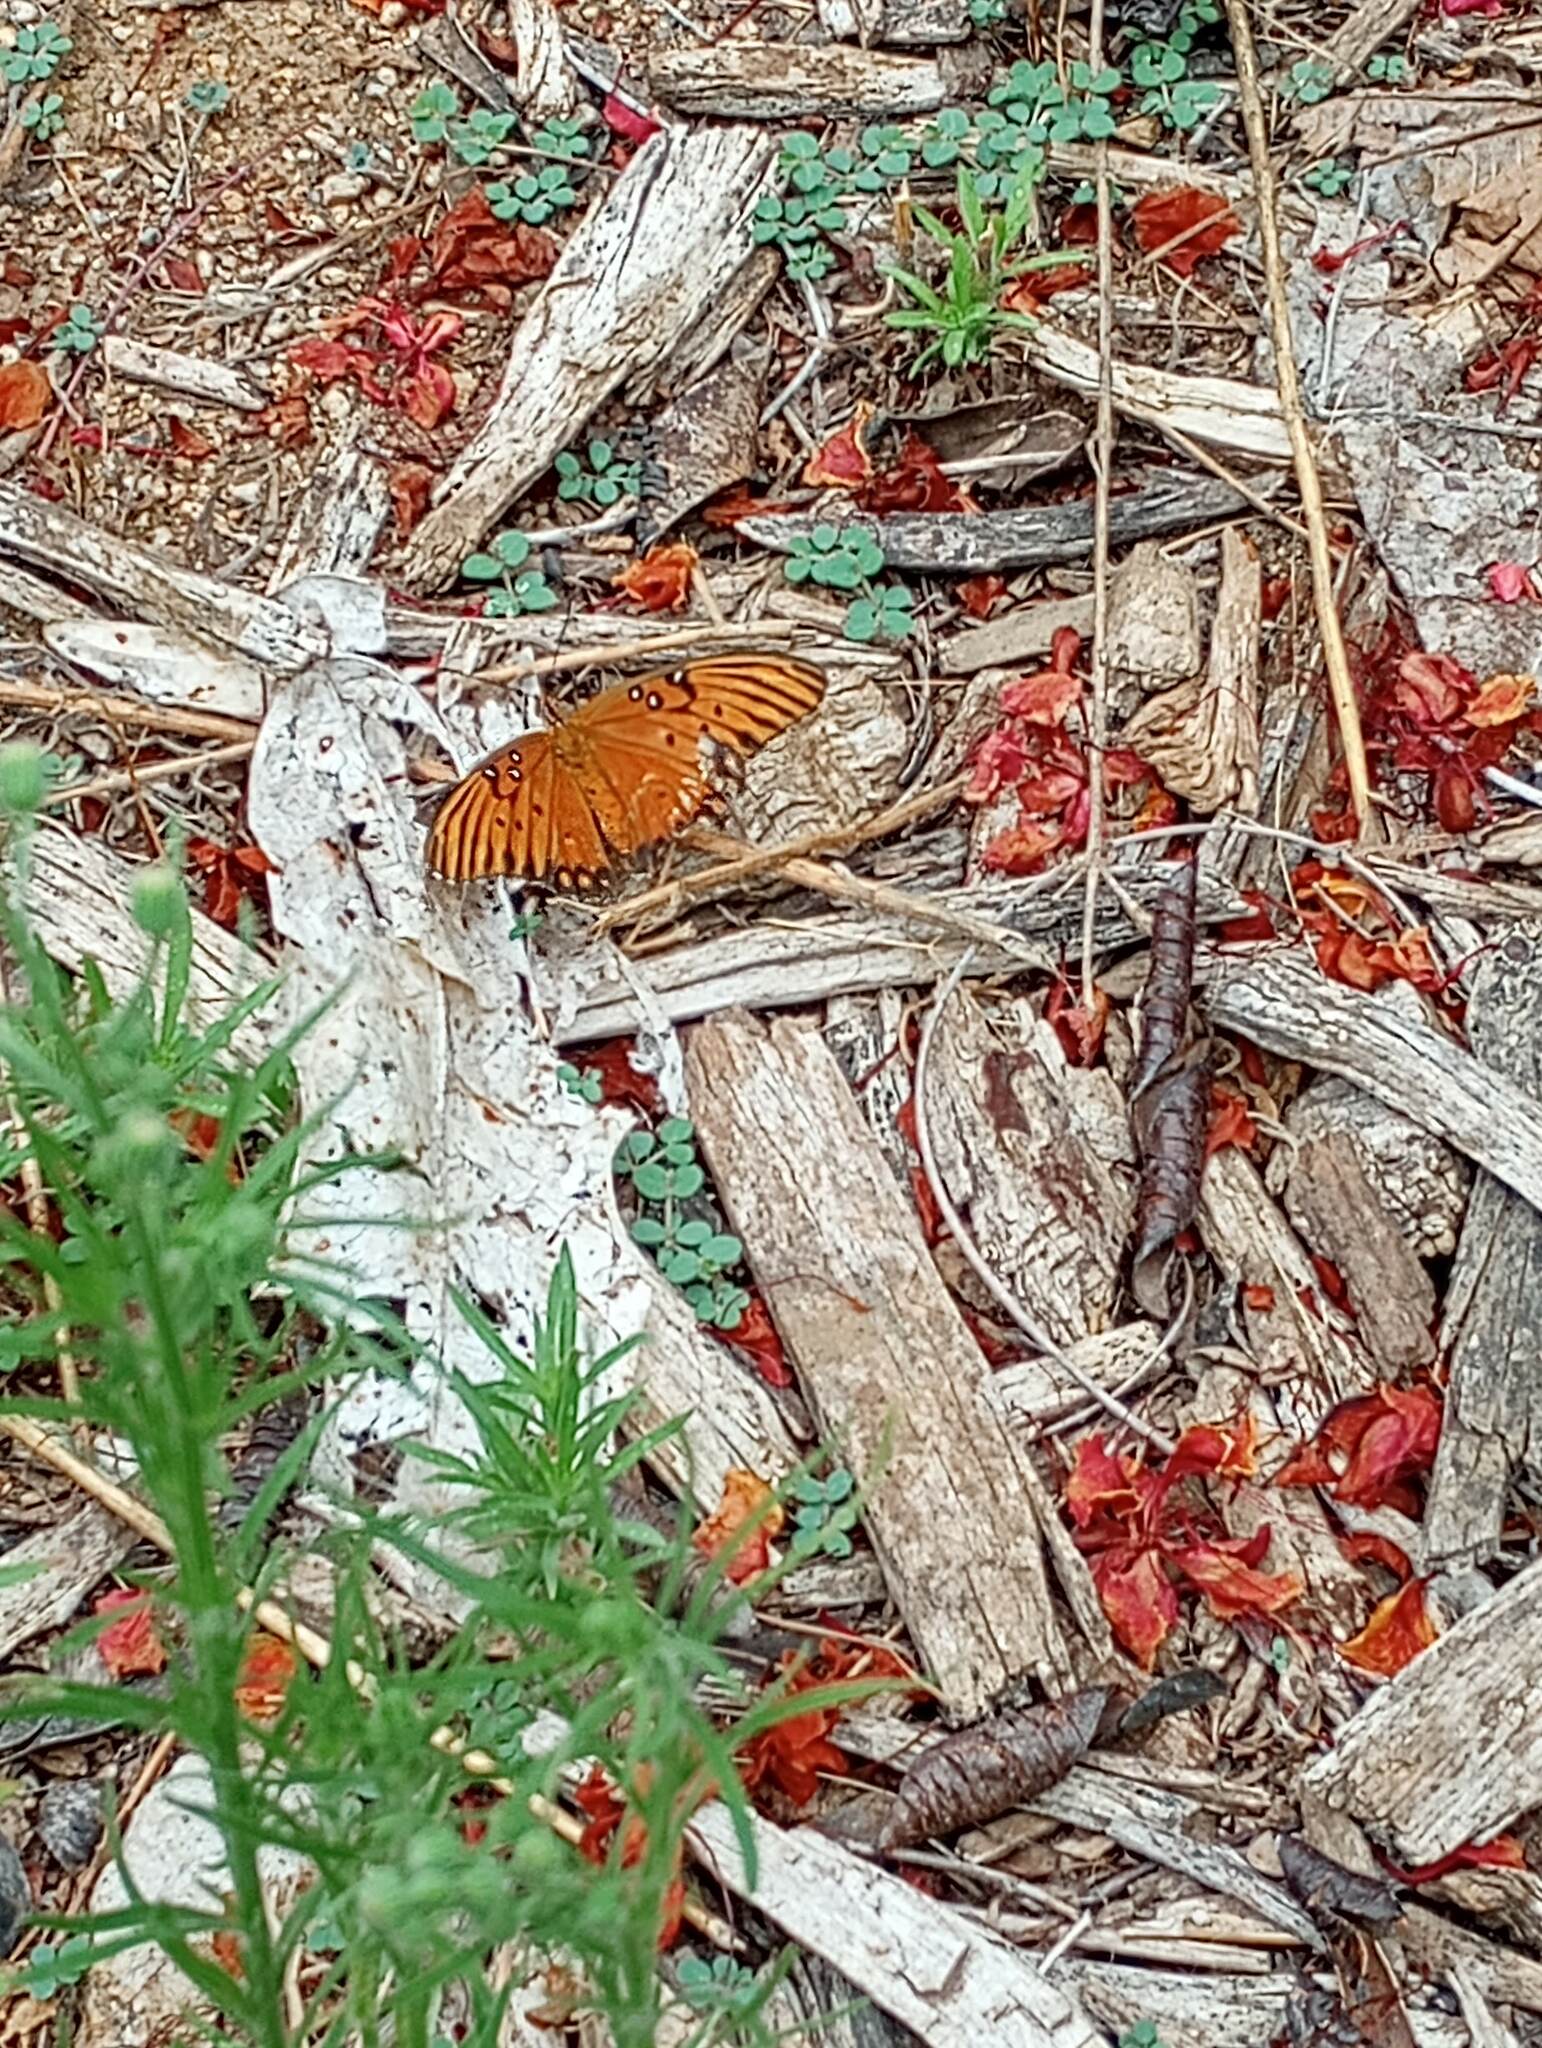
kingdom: Animalia
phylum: Arthropoda
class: Insecta
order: Lepidoptera
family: Nymphalidae
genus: Dione
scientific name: Dione vanillae
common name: Gulf fritillary
